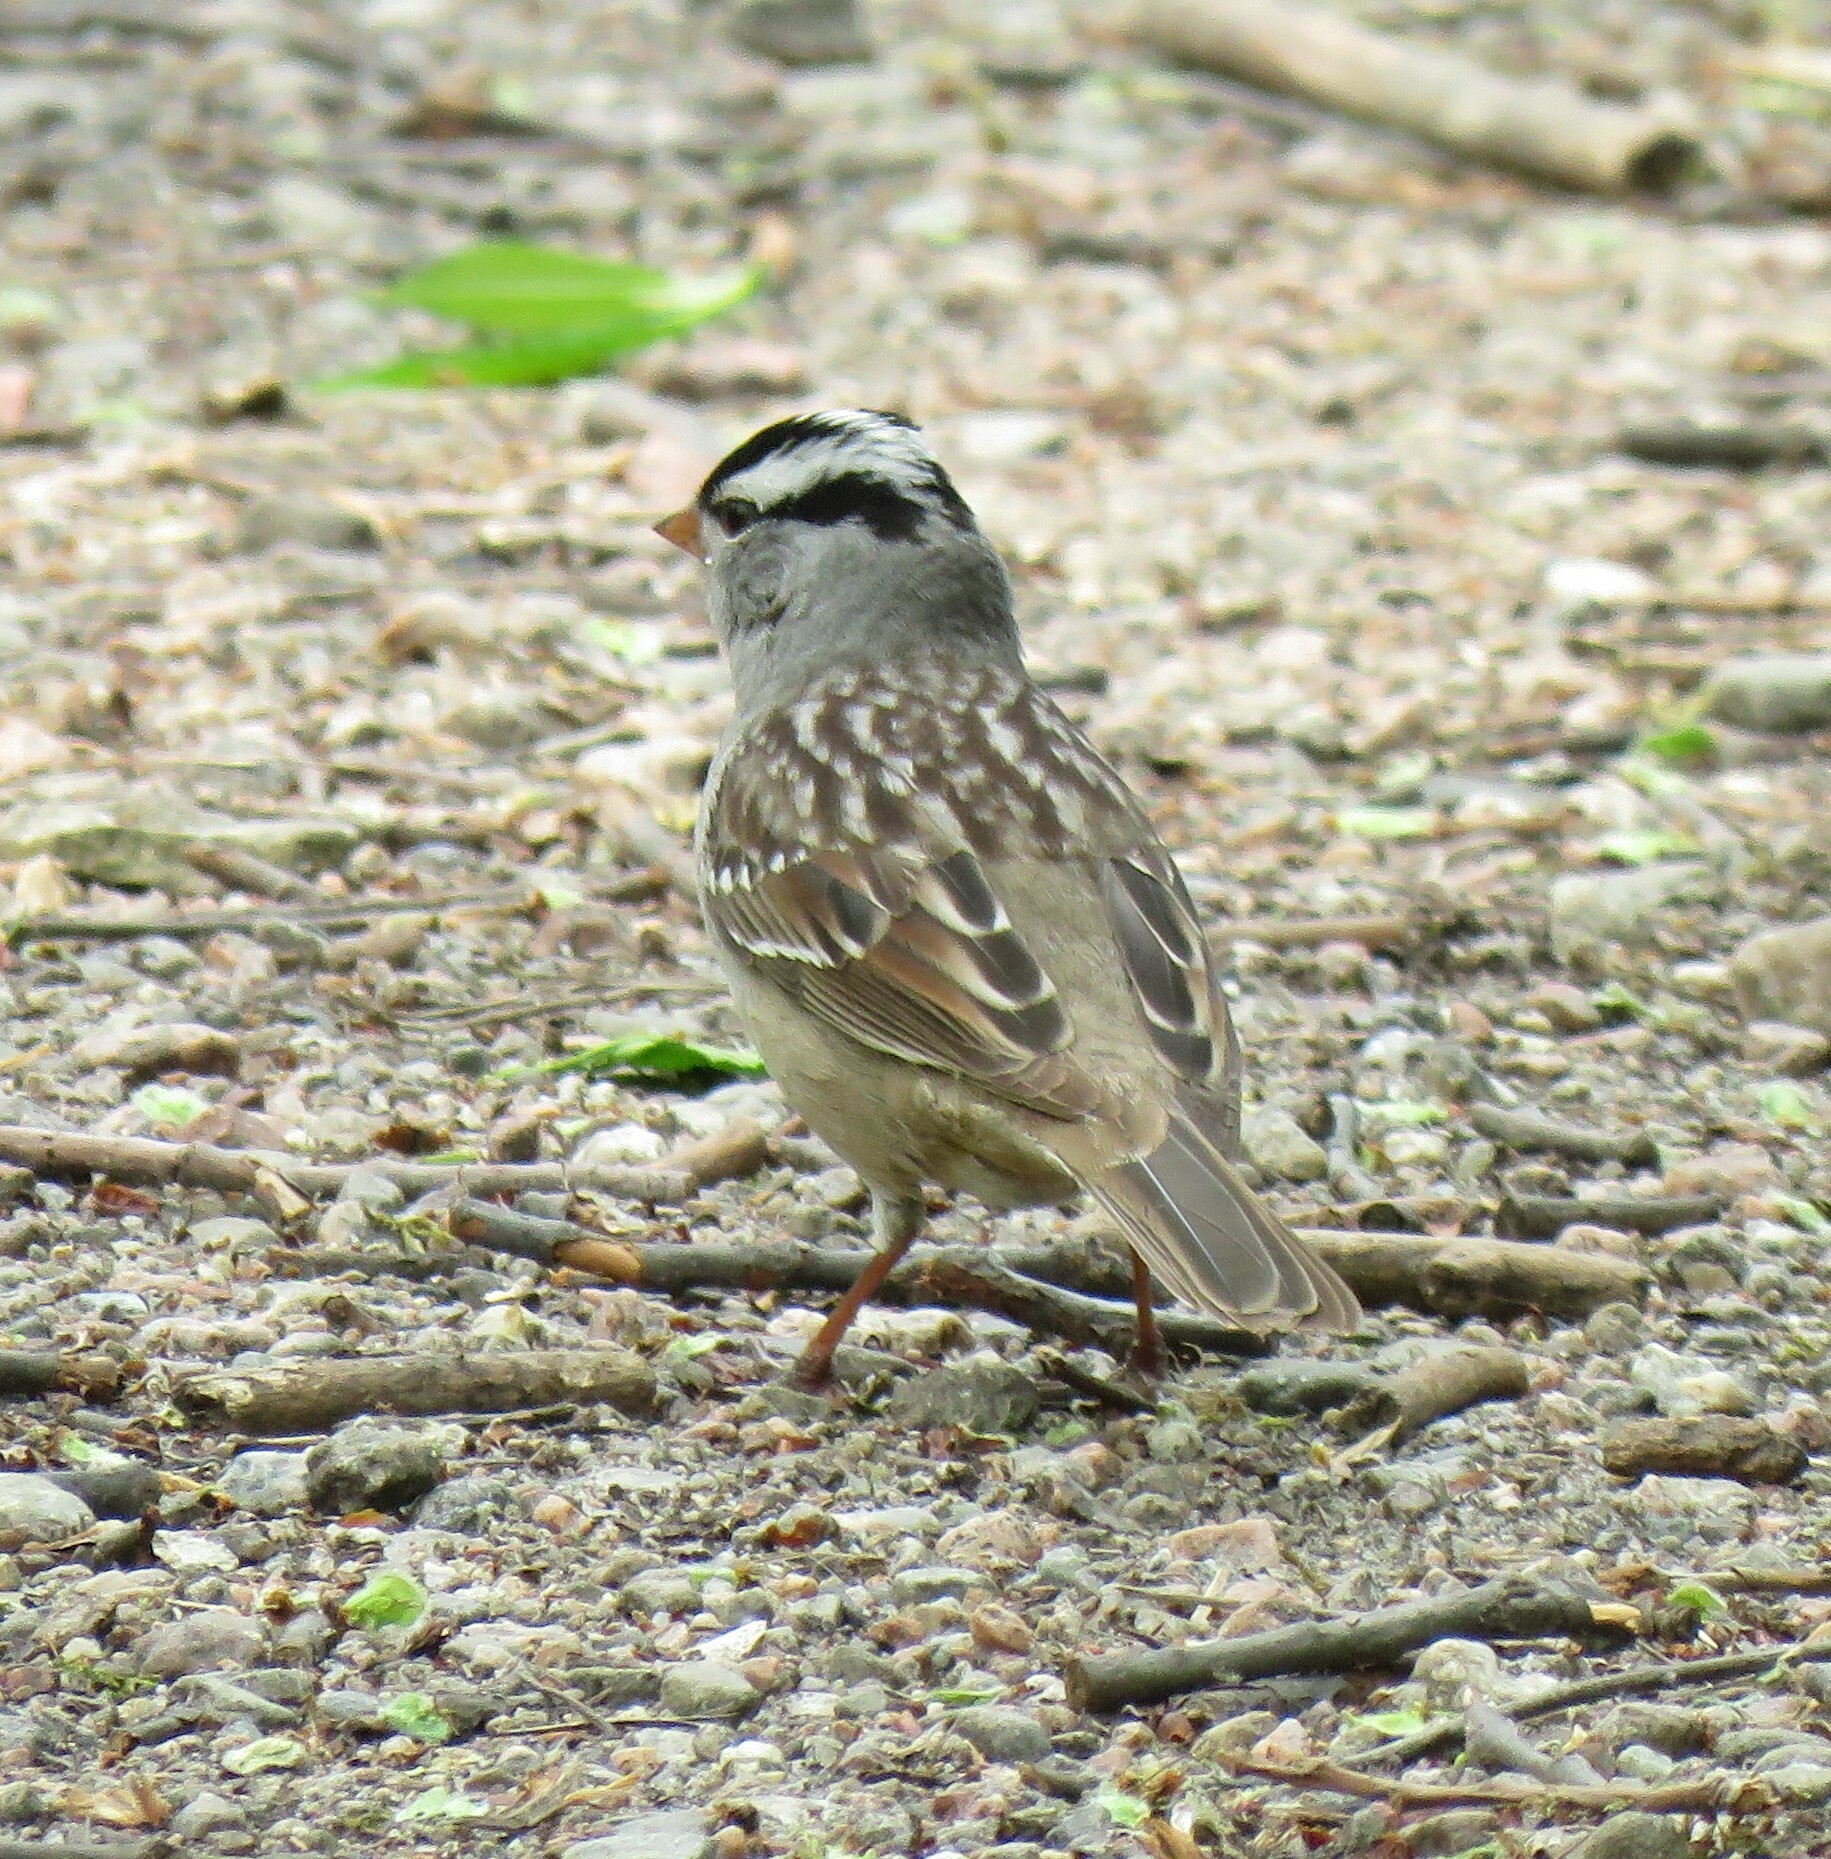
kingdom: Animalia
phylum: Chordata
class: Aves
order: Passeriformes
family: Passerellidae
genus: Zonotrichia
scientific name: Zonotrichia leucophrys
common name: White-crowned sparrow
